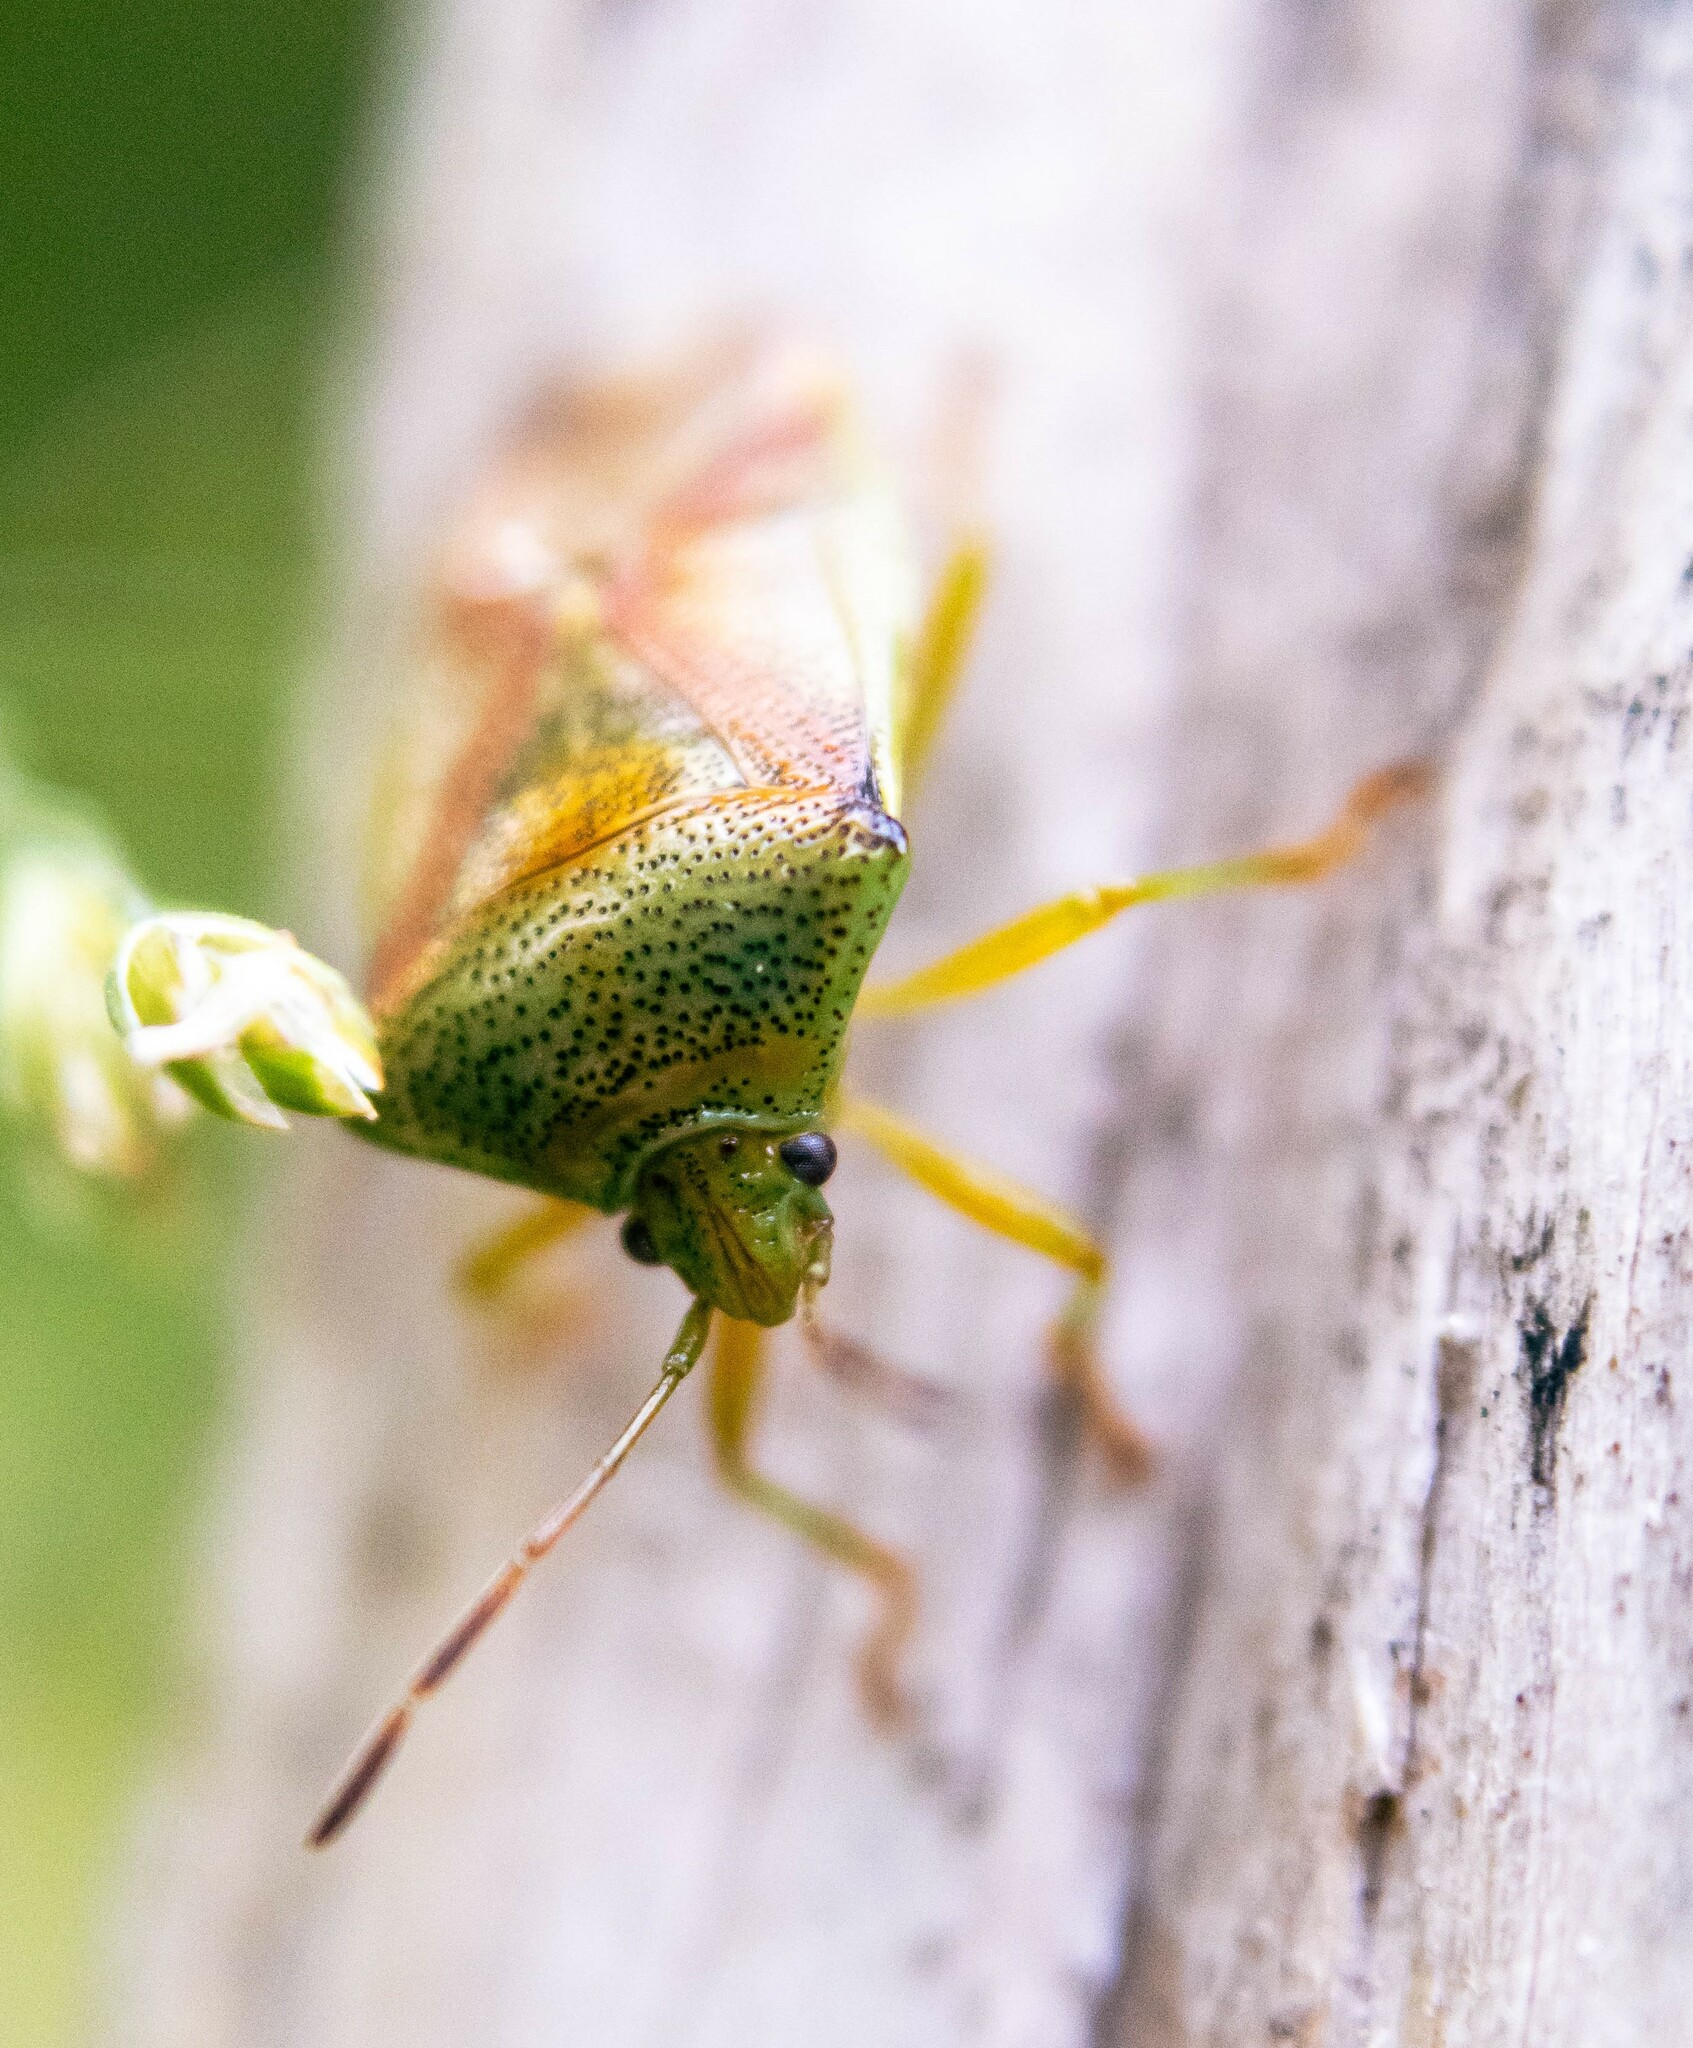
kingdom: Animalia
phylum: Arthropoda
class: Insecta
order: Hemiptera
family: Acanthosomatidae
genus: Elasmostethus
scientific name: Elasmostethus interstinctus
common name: Birch shieldbug
